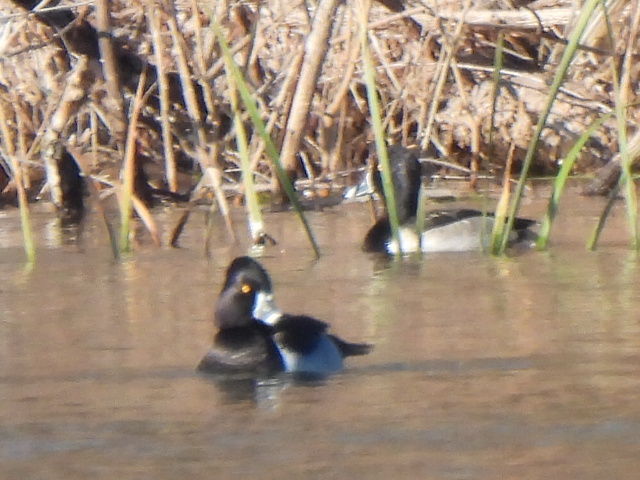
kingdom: Animalia
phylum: Chordata
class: Aves
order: Anseriformes
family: Anatidae
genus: Aythya
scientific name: Aythya collaris
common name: Ring-necked duck
